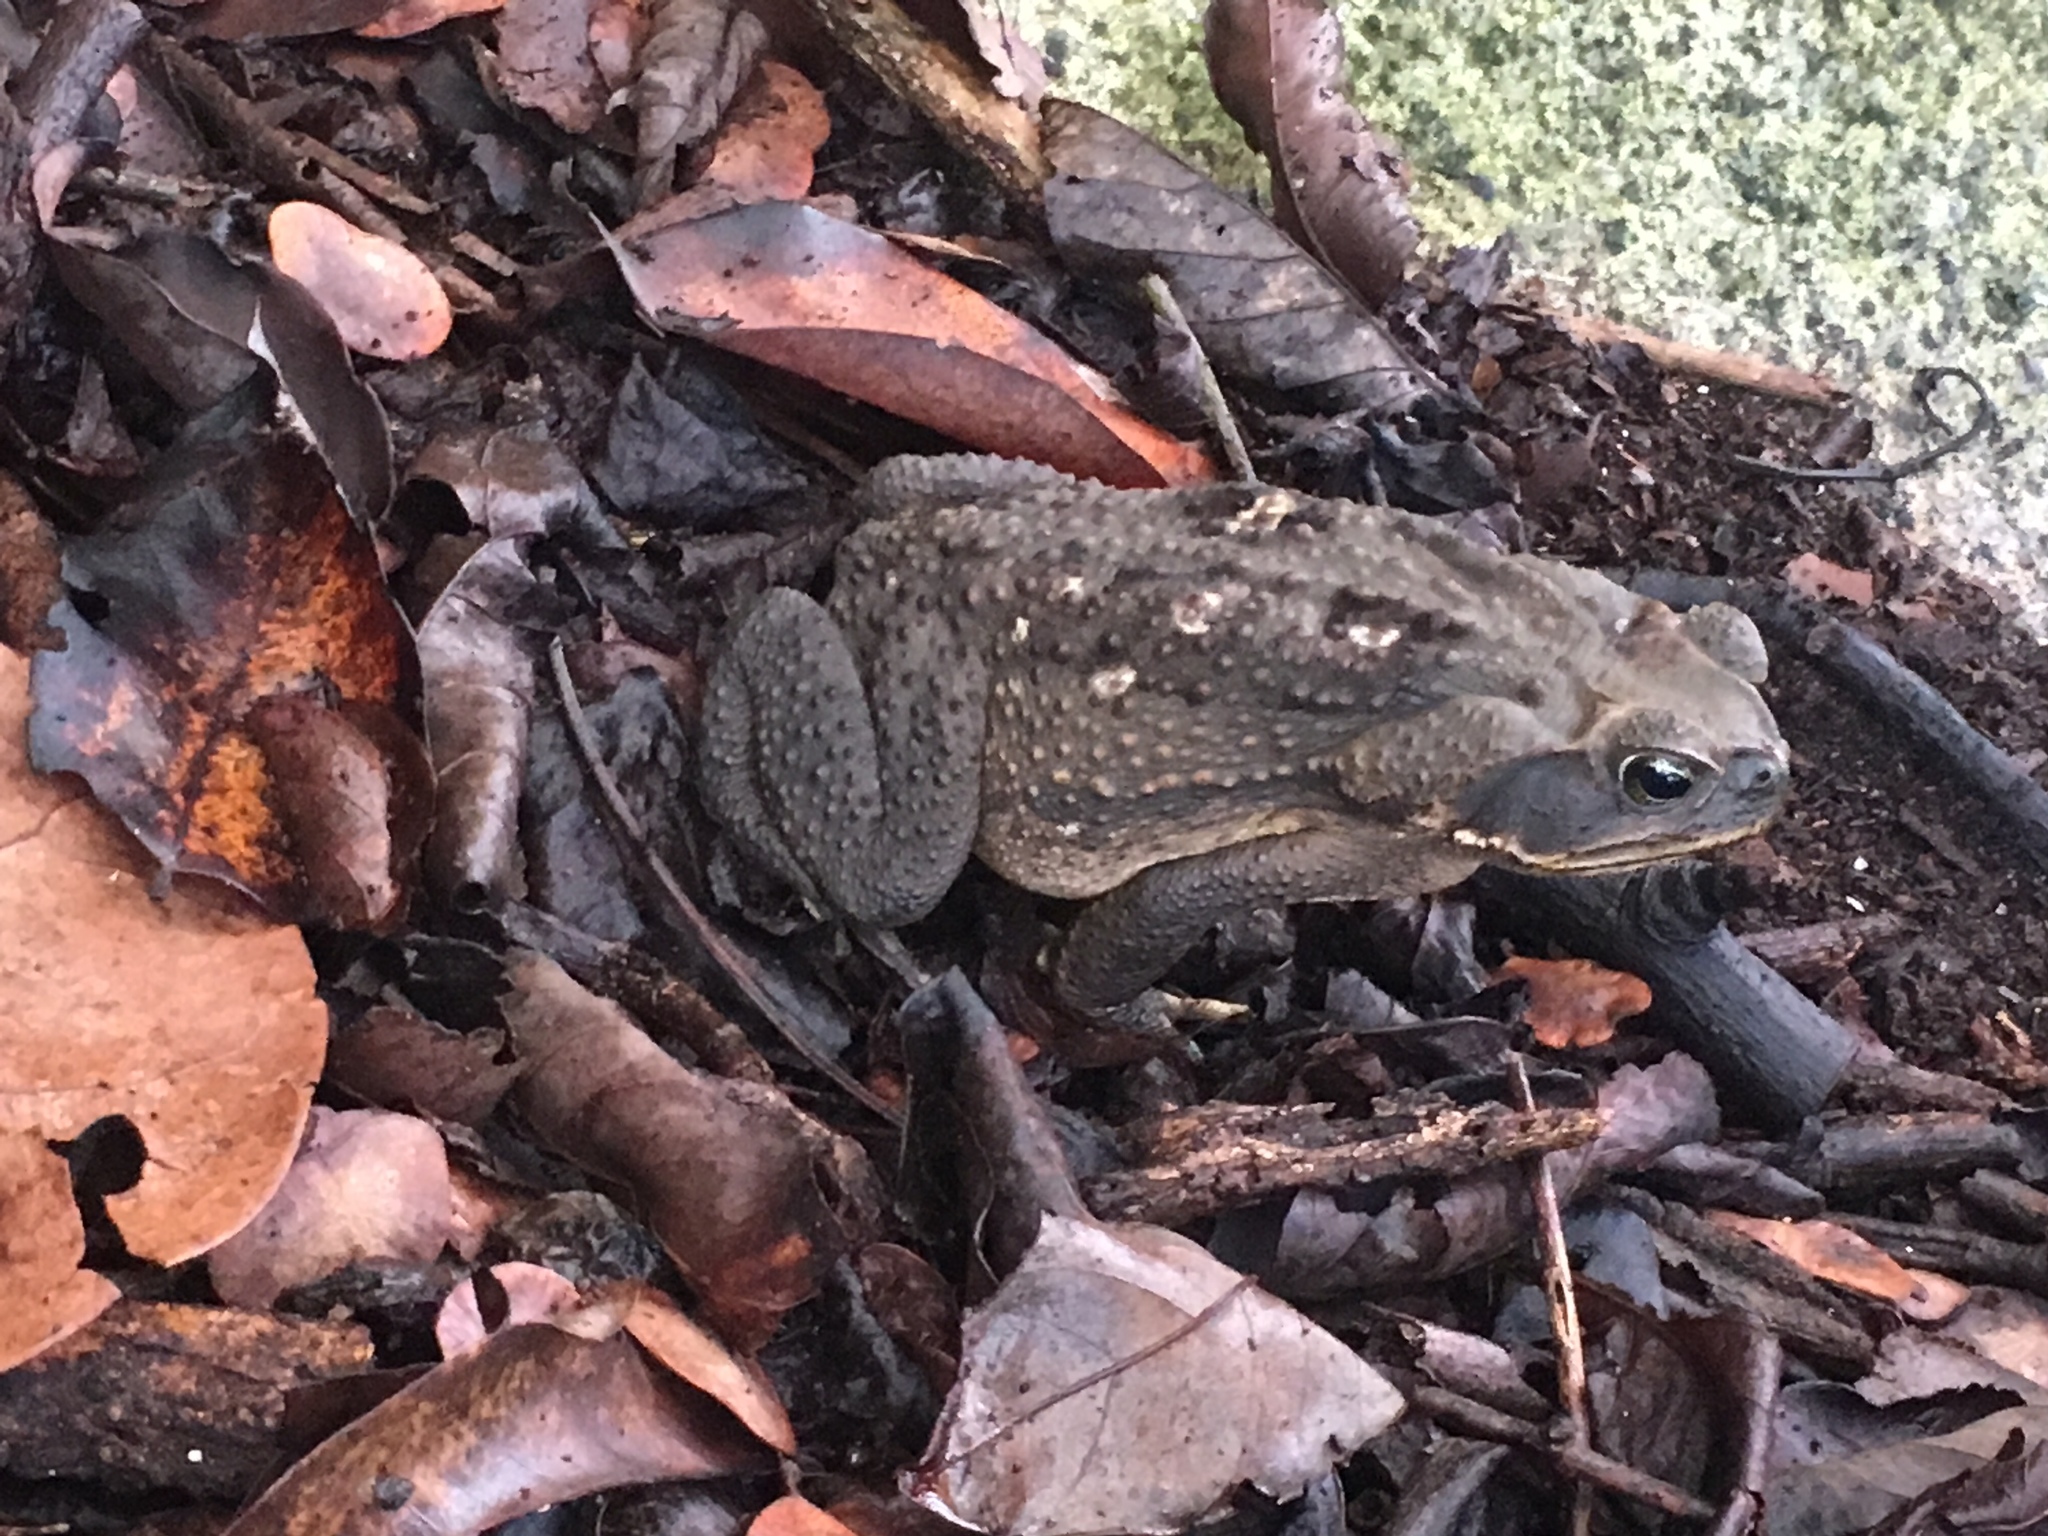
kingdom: Animalia
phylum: Chordata
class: Amphibia
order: Anura
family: Bufonidae
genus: Rhinella
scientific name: Rhinella horribilis
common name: Mesoamerican cane toad
